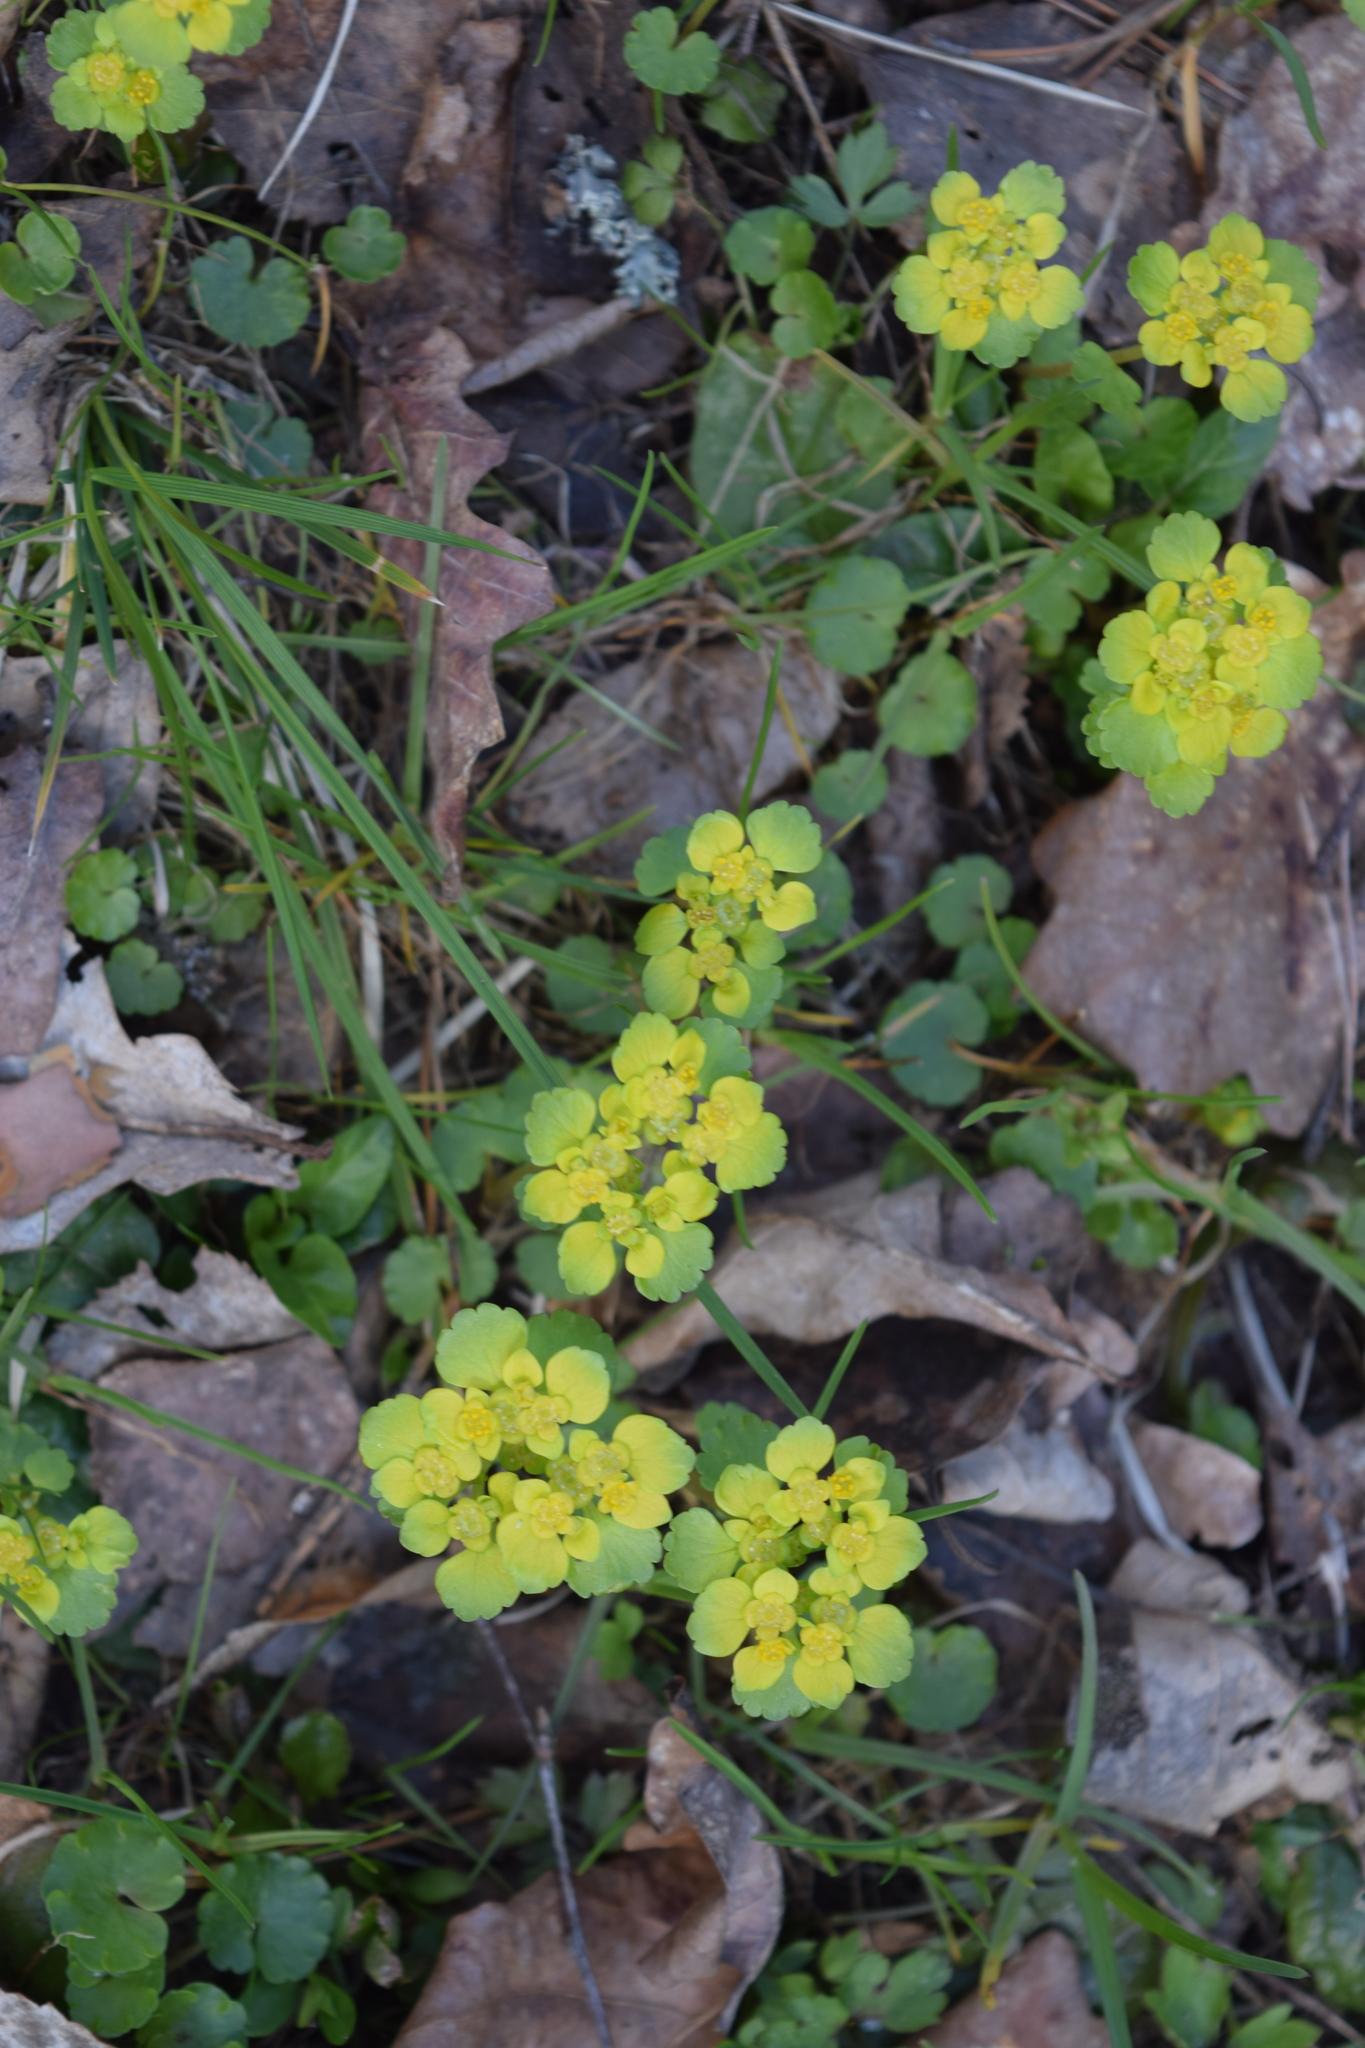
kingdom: Plantae
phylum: Tracheophyta
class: Magnoliopsida
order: Saxifragales
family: Saxifragaceae
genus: Chrysosplenium
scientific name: Chrysosplenium alternifolium
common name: Alternate-leaved golden-saxifrage
